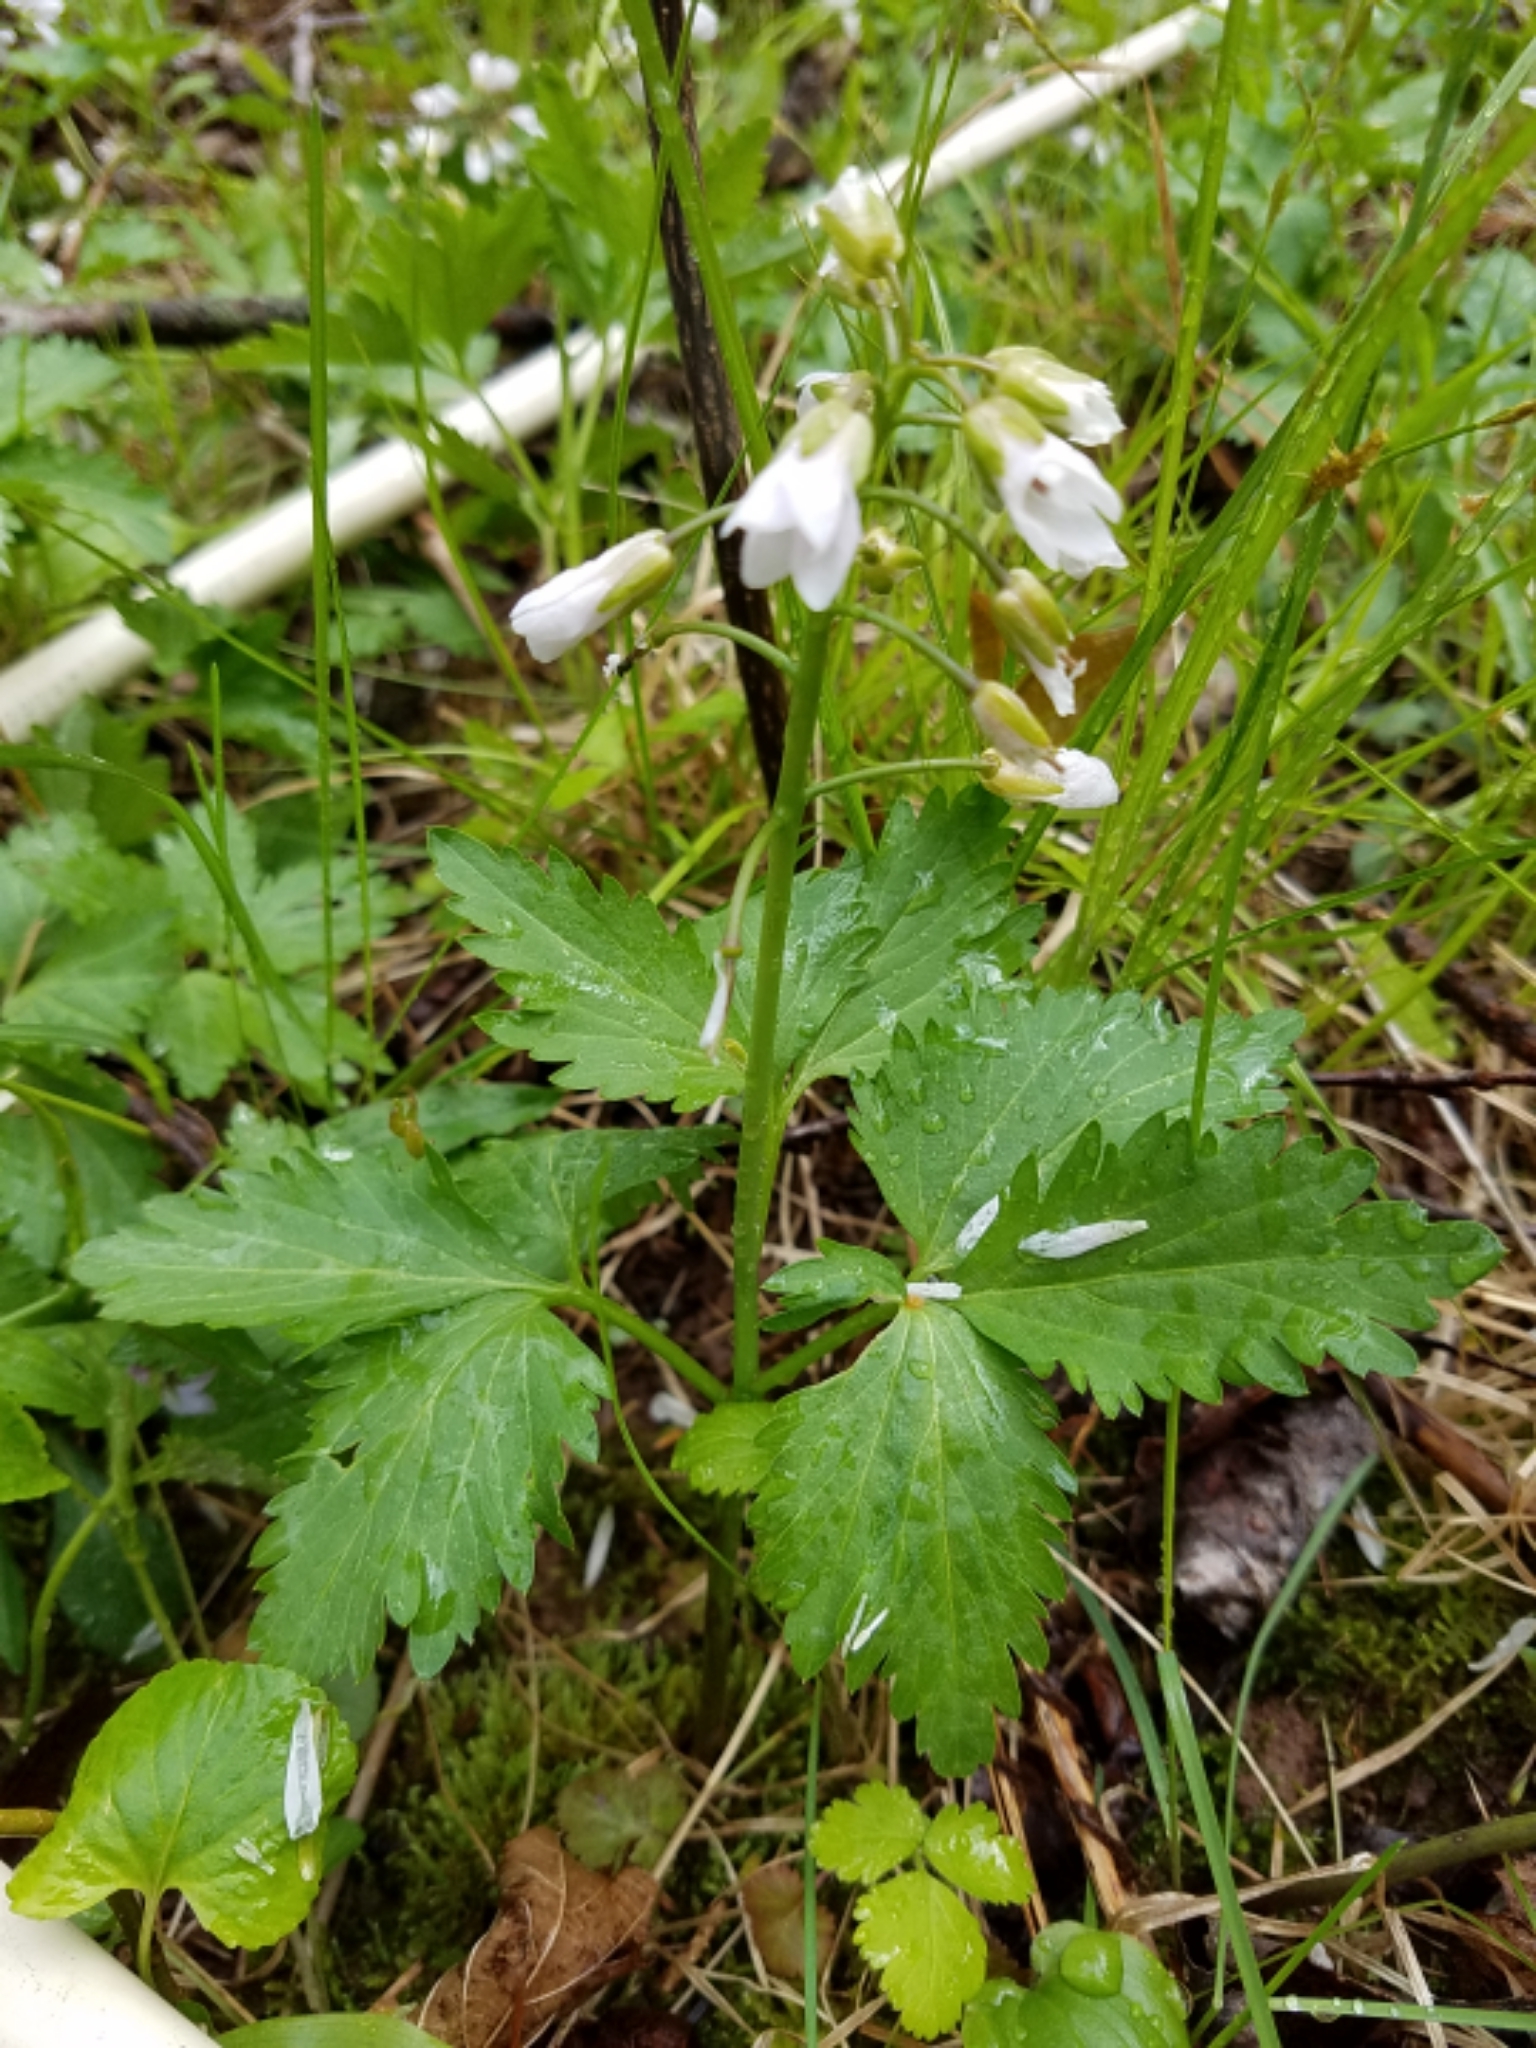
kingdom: Plantae
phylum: Tracheophyta
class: Magnoliopsida
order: Brassicales
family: Brassicaceae
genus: Cardamine
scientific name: Cardamine maxima
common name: Great bittercress
